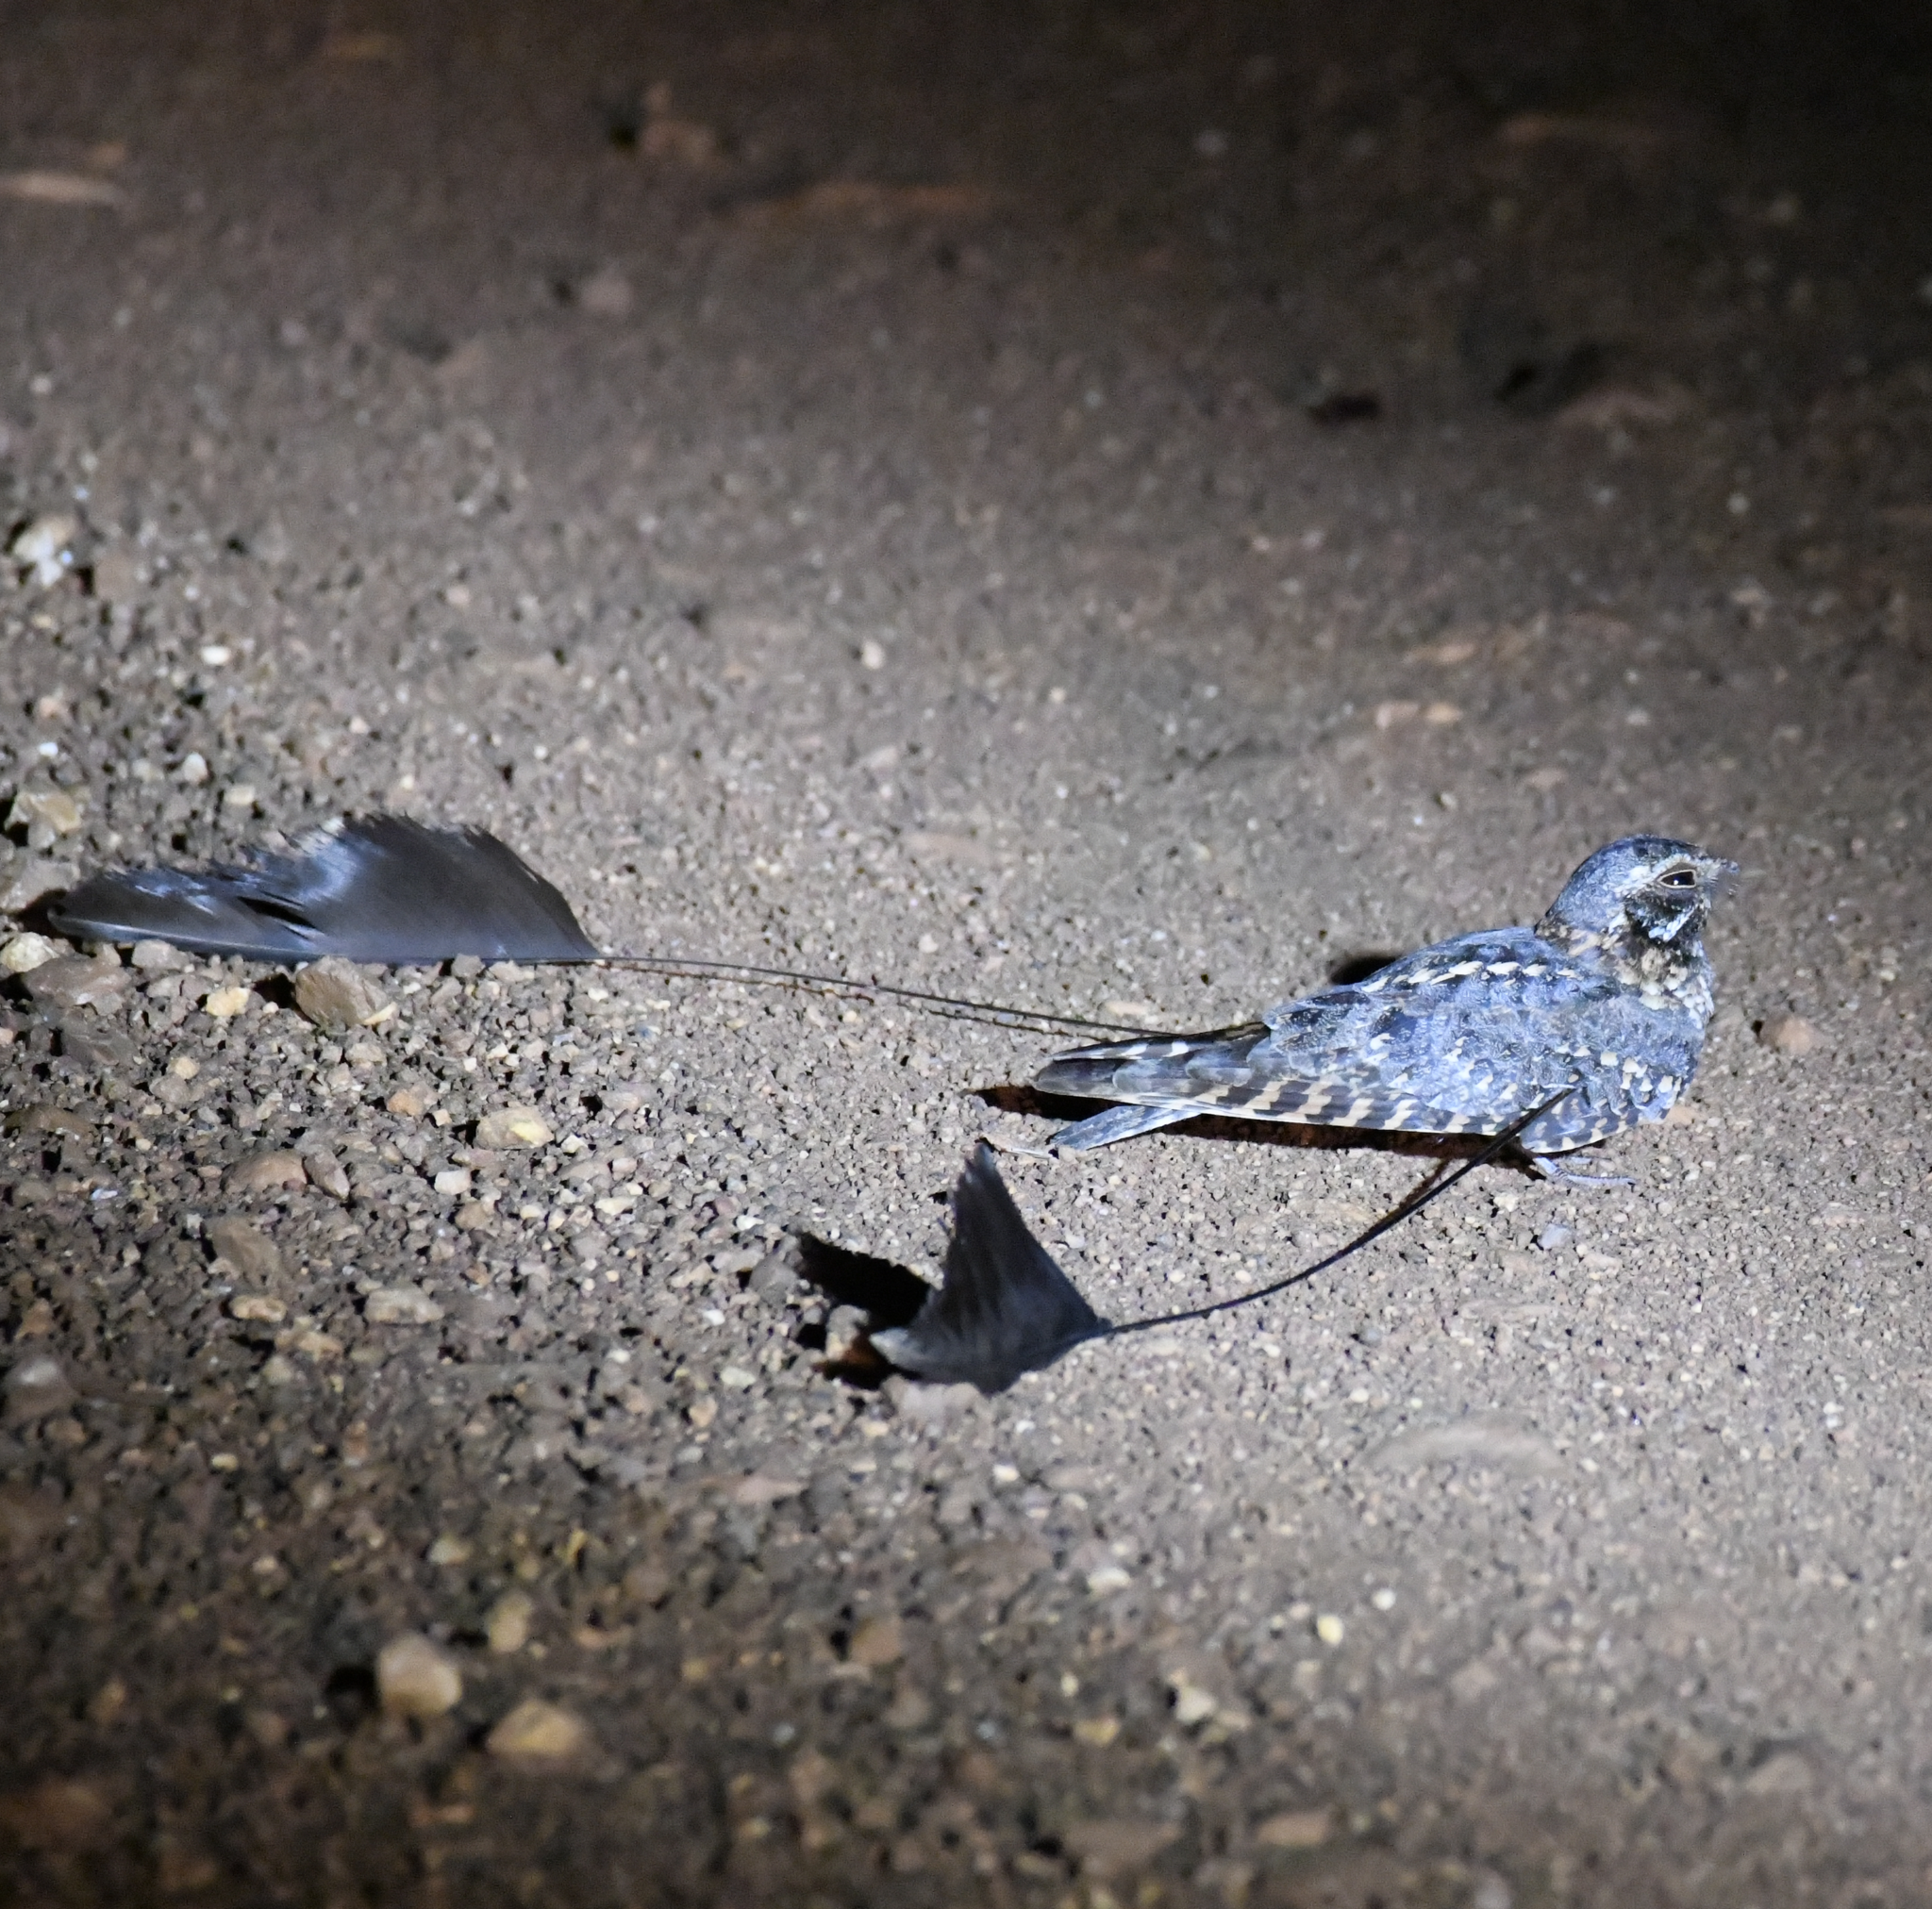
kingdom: Animalia
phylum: Chordata
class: Aves
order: Caprimulgiformes
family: Caprimulgidae
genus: Caprimulgus
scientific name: Caprimulgus longipennis
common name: Standard-winged nightjar
